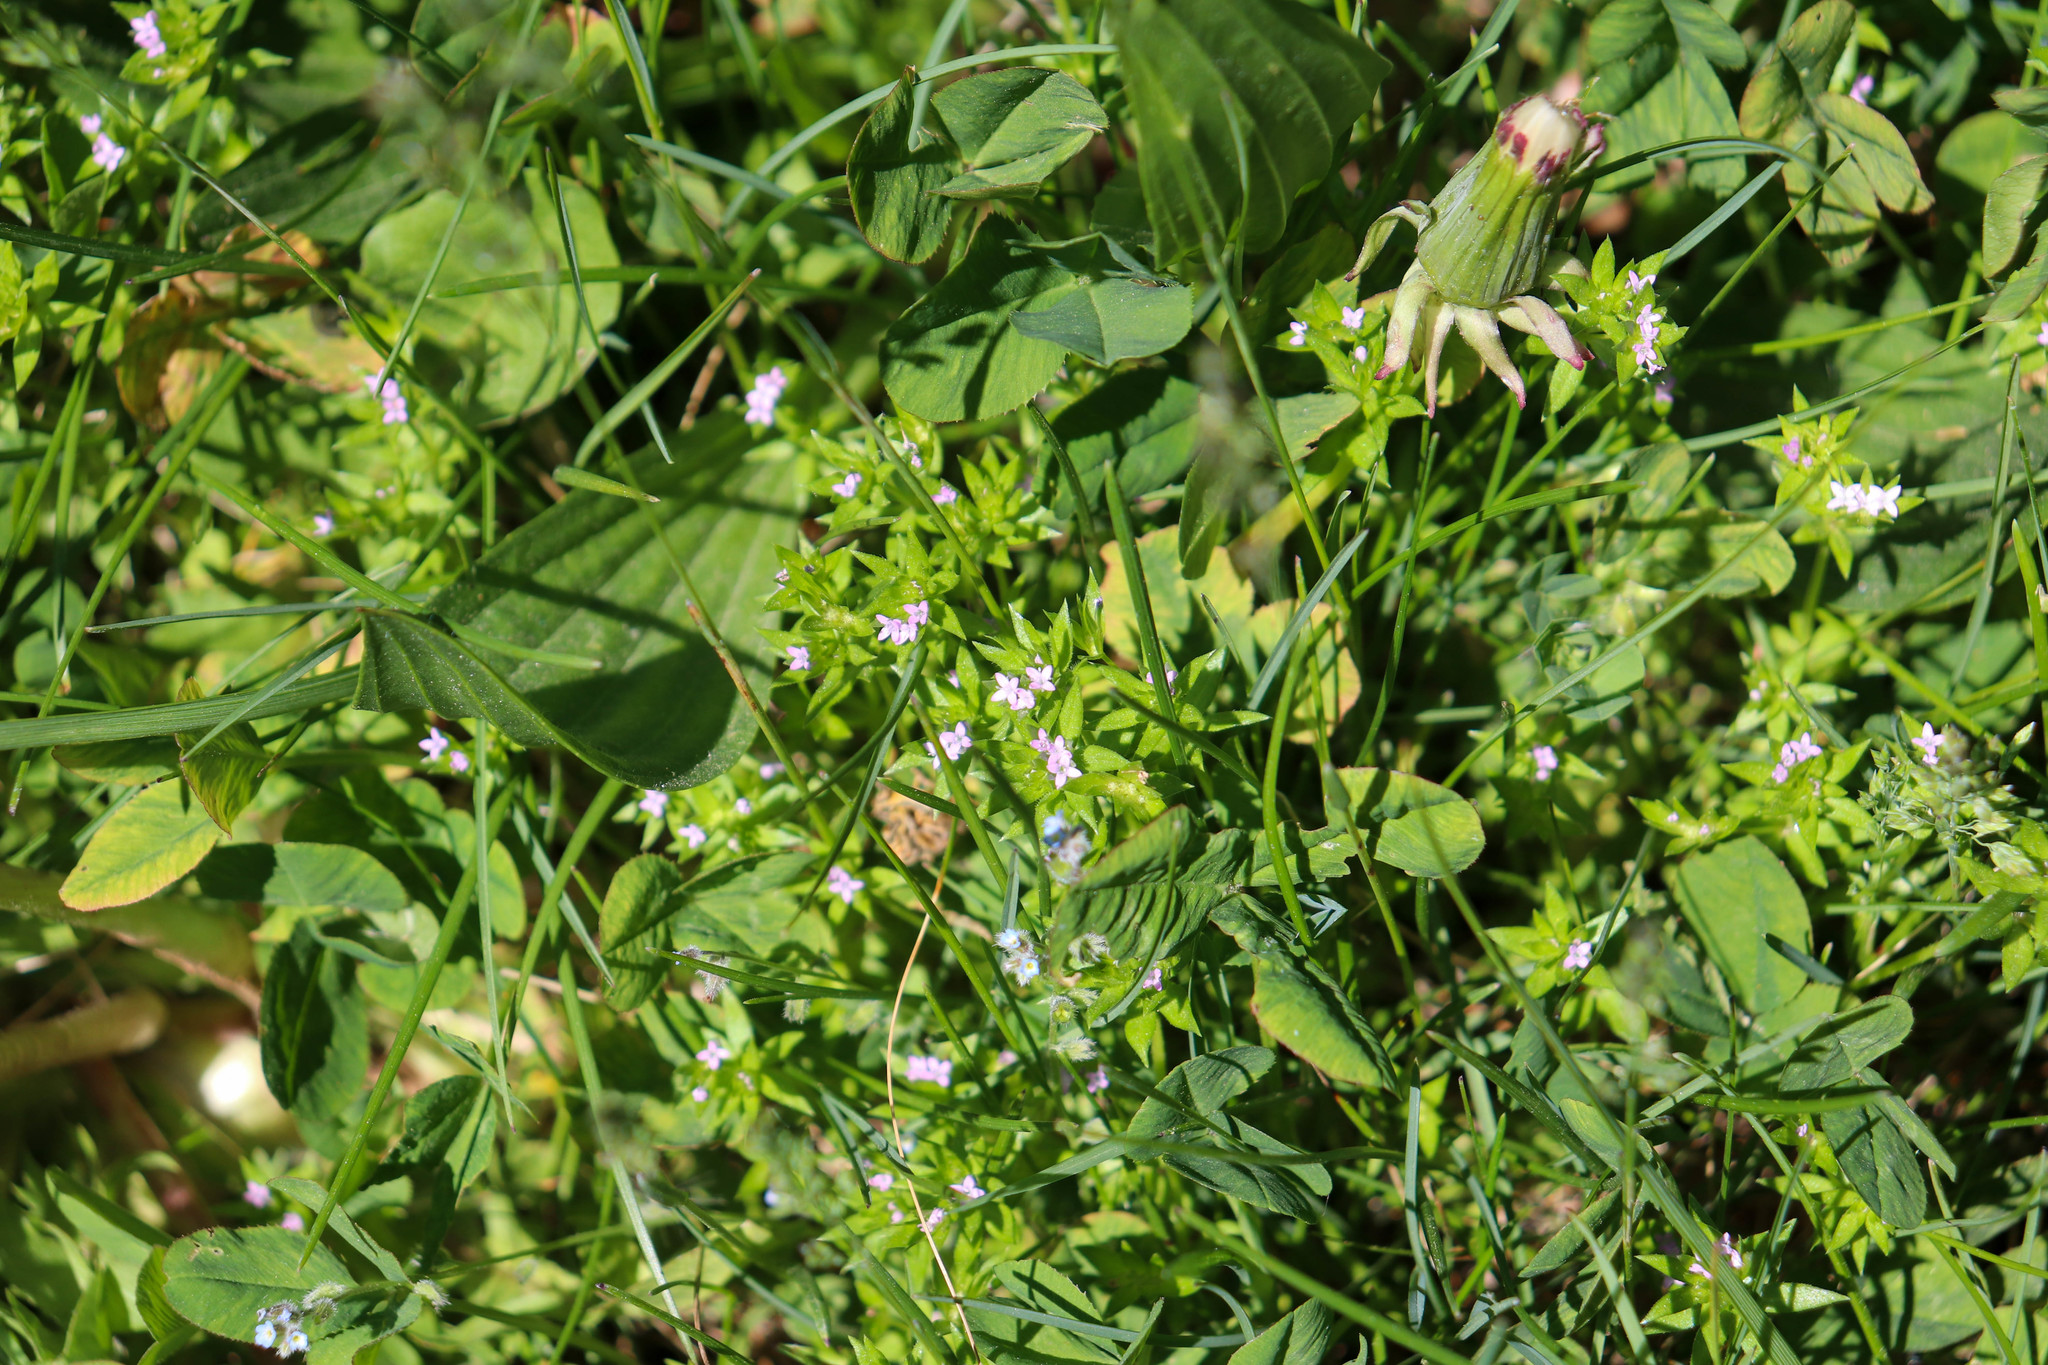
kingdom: Plantae
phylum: Tracheophyta
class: Magnoliopsida
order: Gentianales
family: Rubiaceae
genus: Sherardia
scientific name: Sherardia arvensis
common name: Field madder
